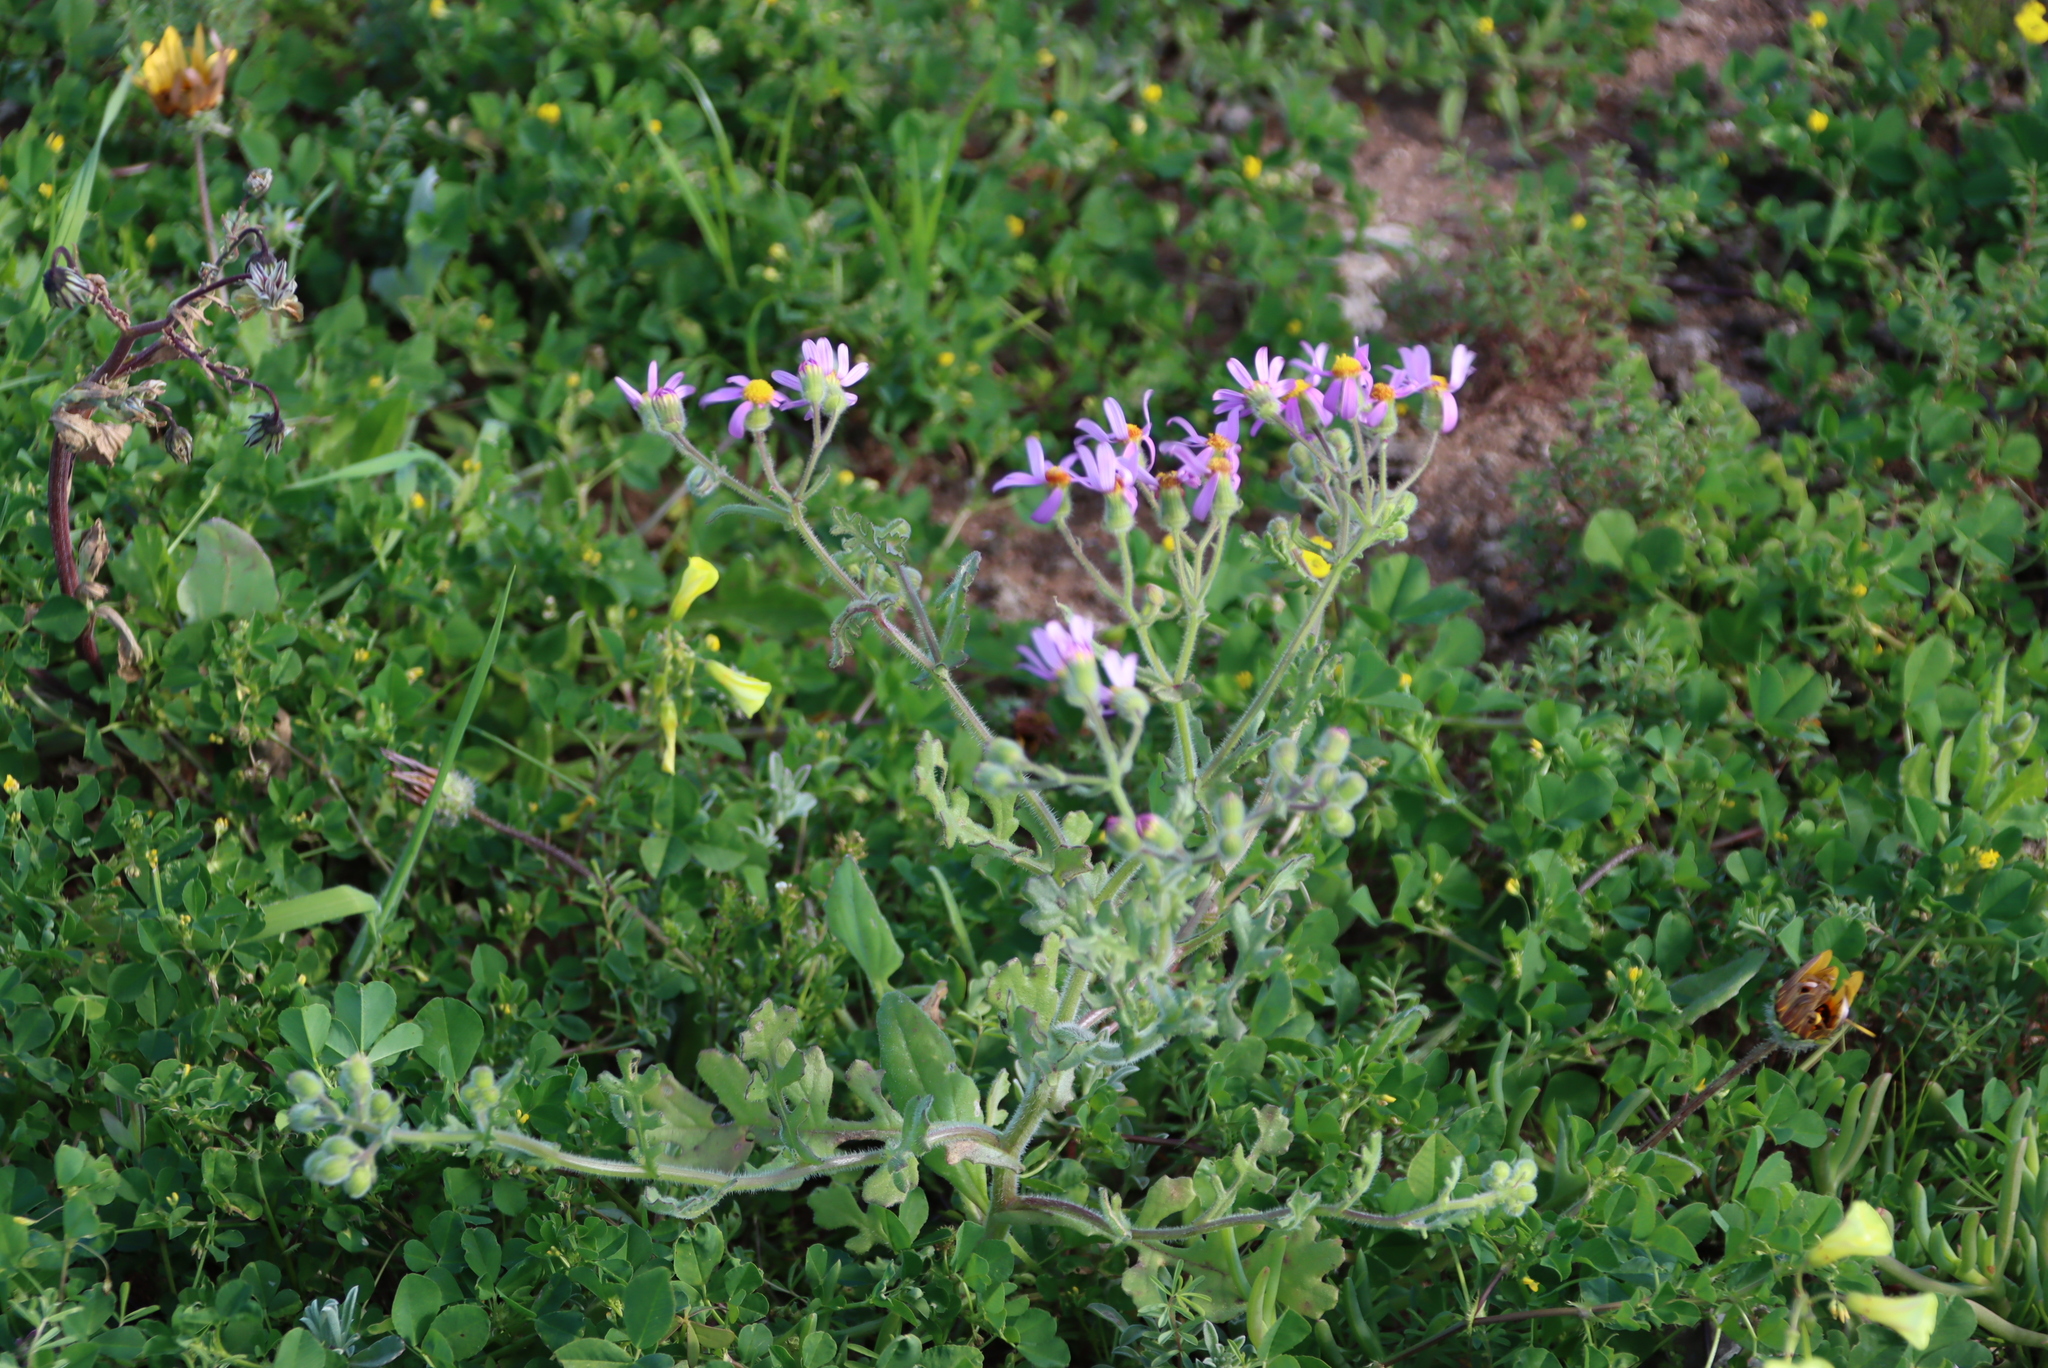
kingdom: Plantae
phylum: Tracheophyta
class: Magnoliopsida
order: Asterales
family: Asteraceae
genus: Senecio
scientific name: Senecio arenarius
